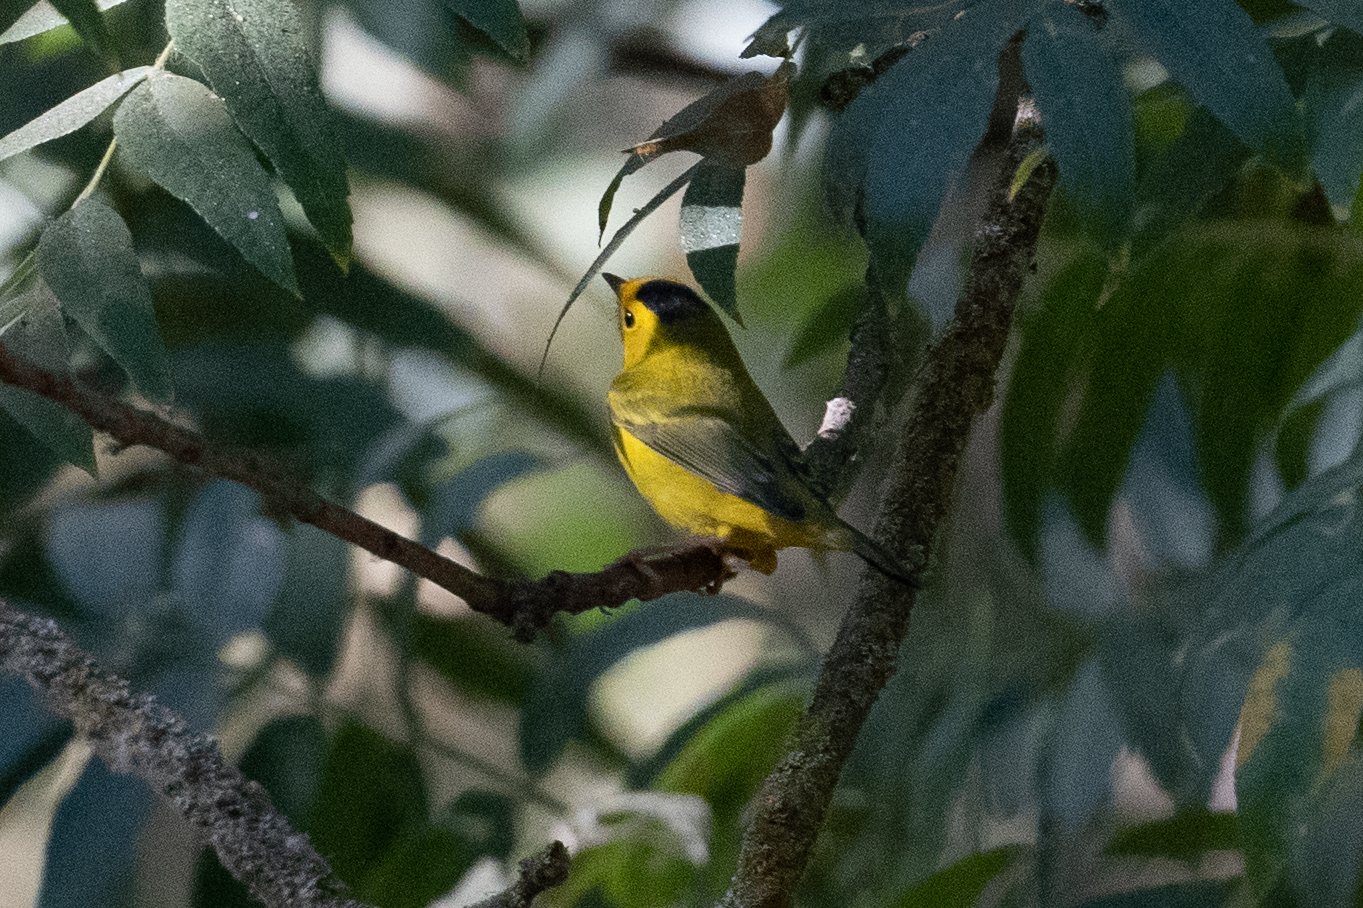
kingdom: Animalia
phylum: Chordata
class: Aves
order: Passeriformes
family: Parulidae
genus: Cardellina
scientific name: Cardellina pusilla
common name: Wilson's warbler
